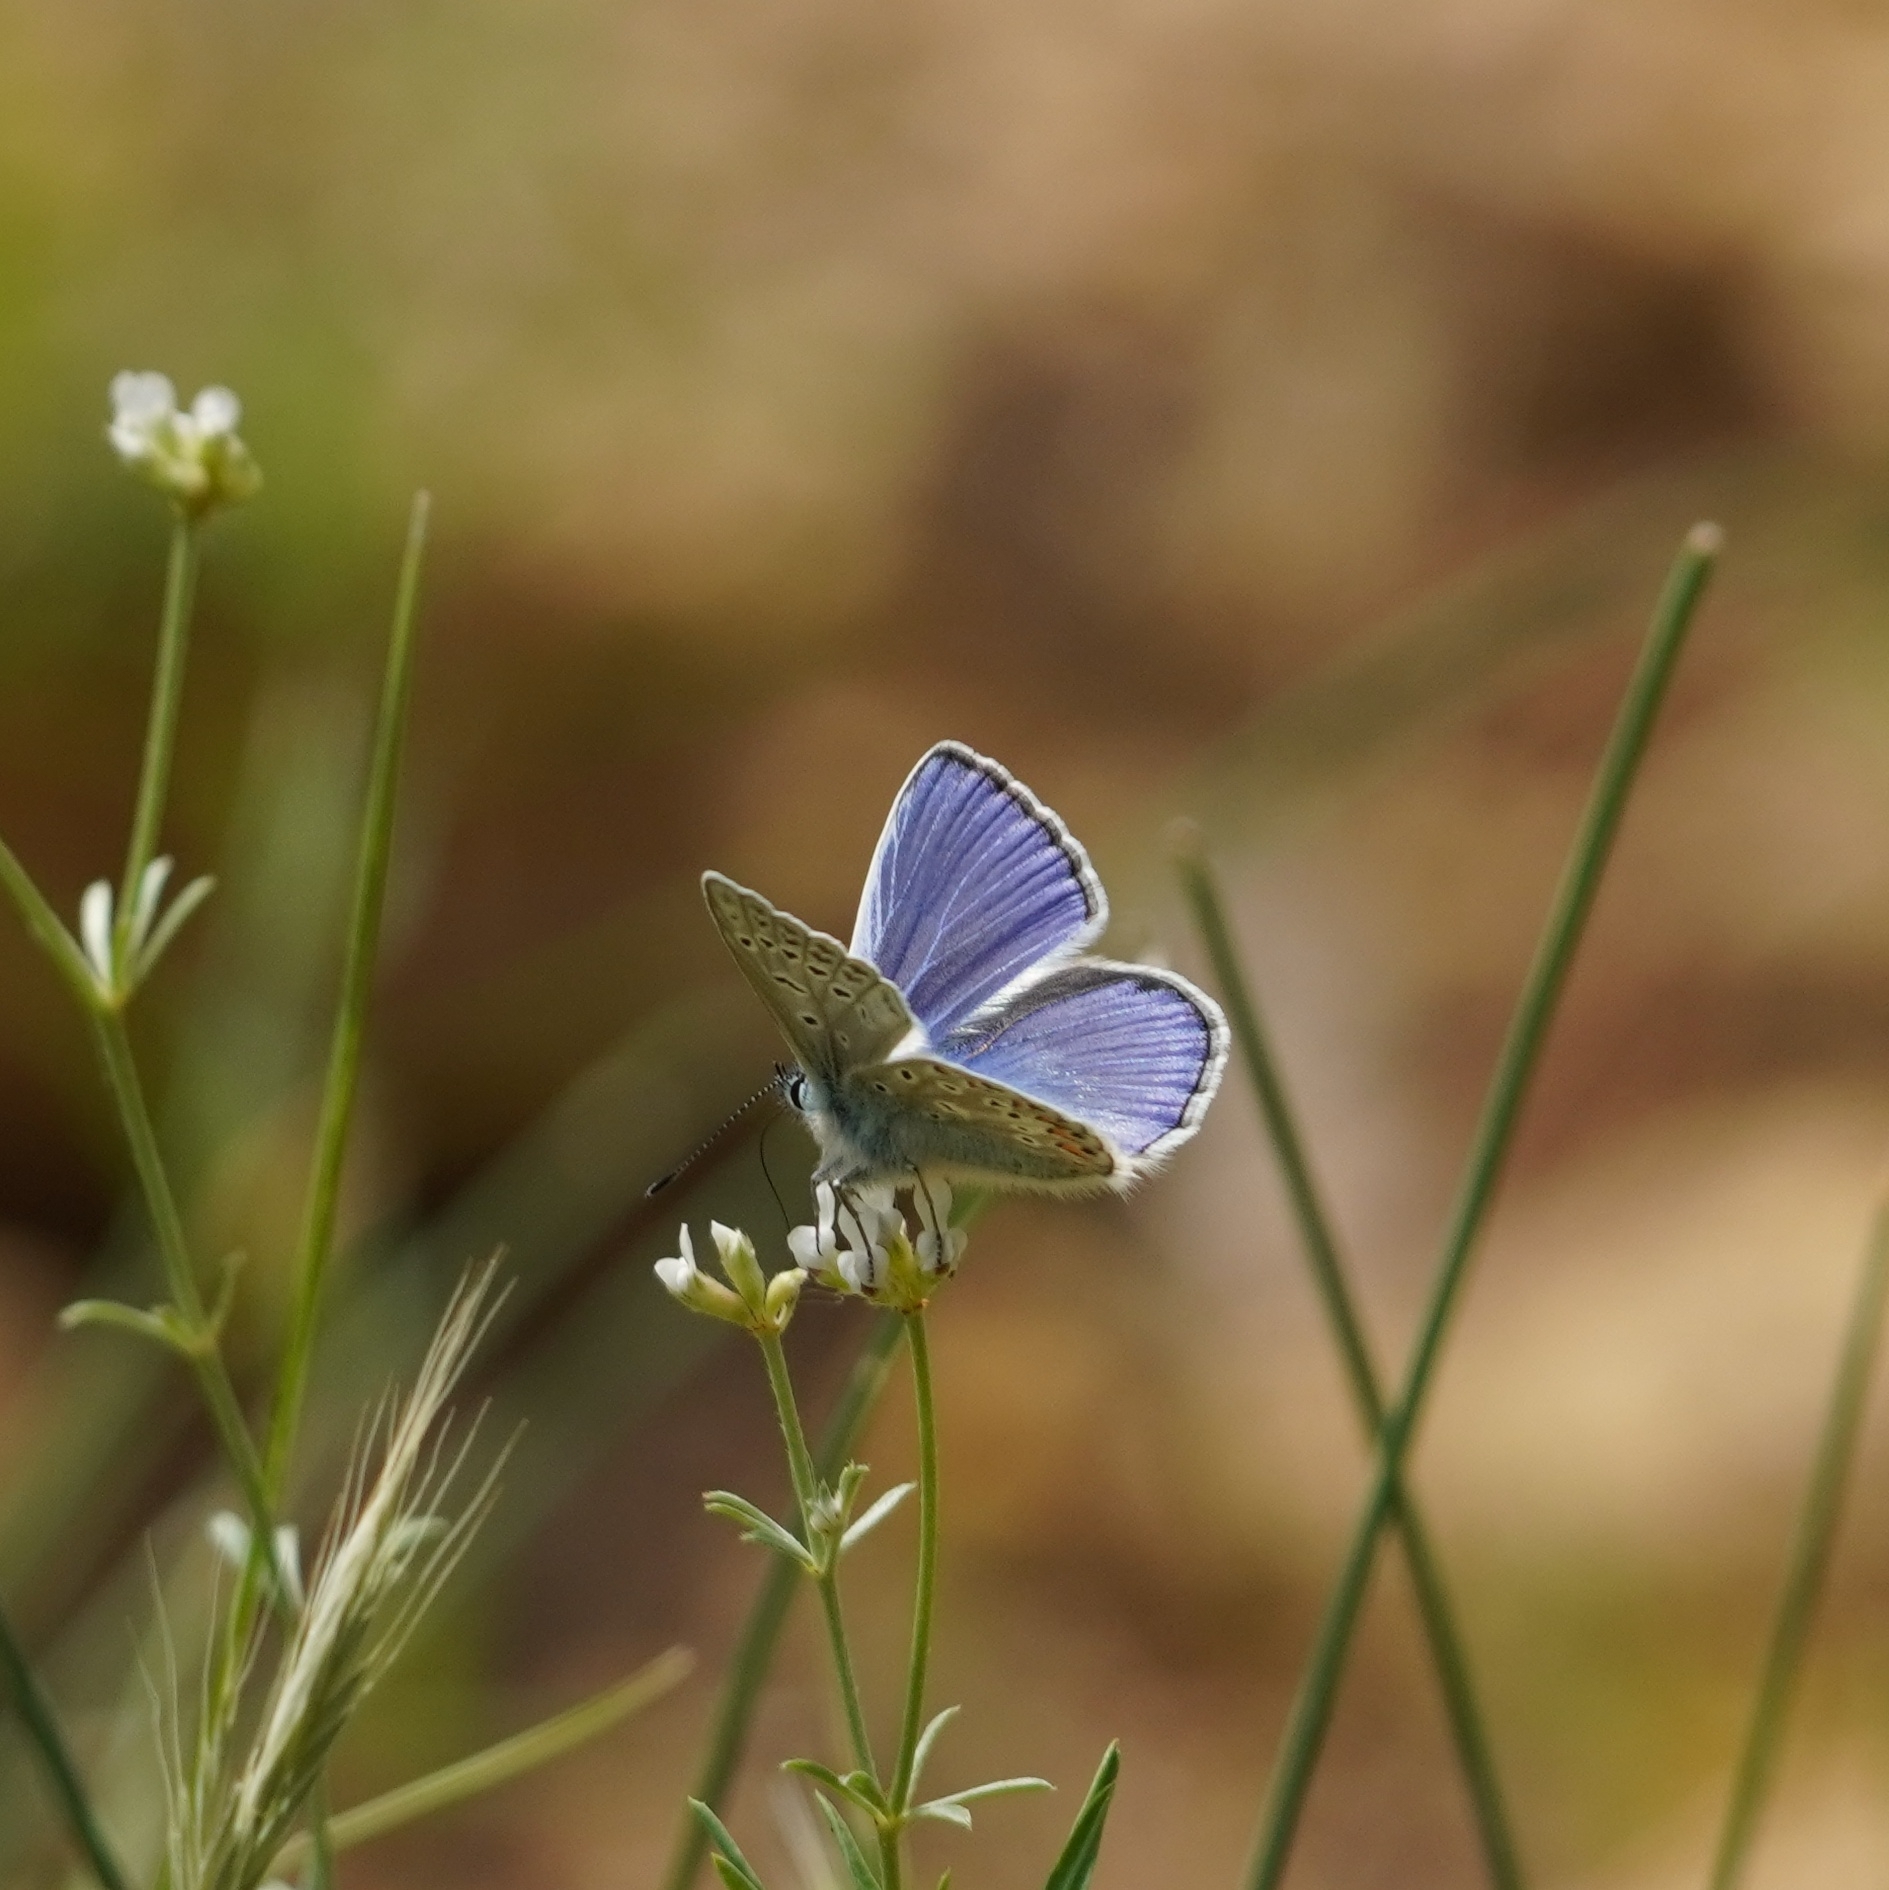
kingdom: Animalia
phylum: Arthropoda
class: Insecta
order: Lepidoptera
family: Lycaenidae
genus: Polyommatus
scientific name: Polyommatus icarus
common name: Common blue
